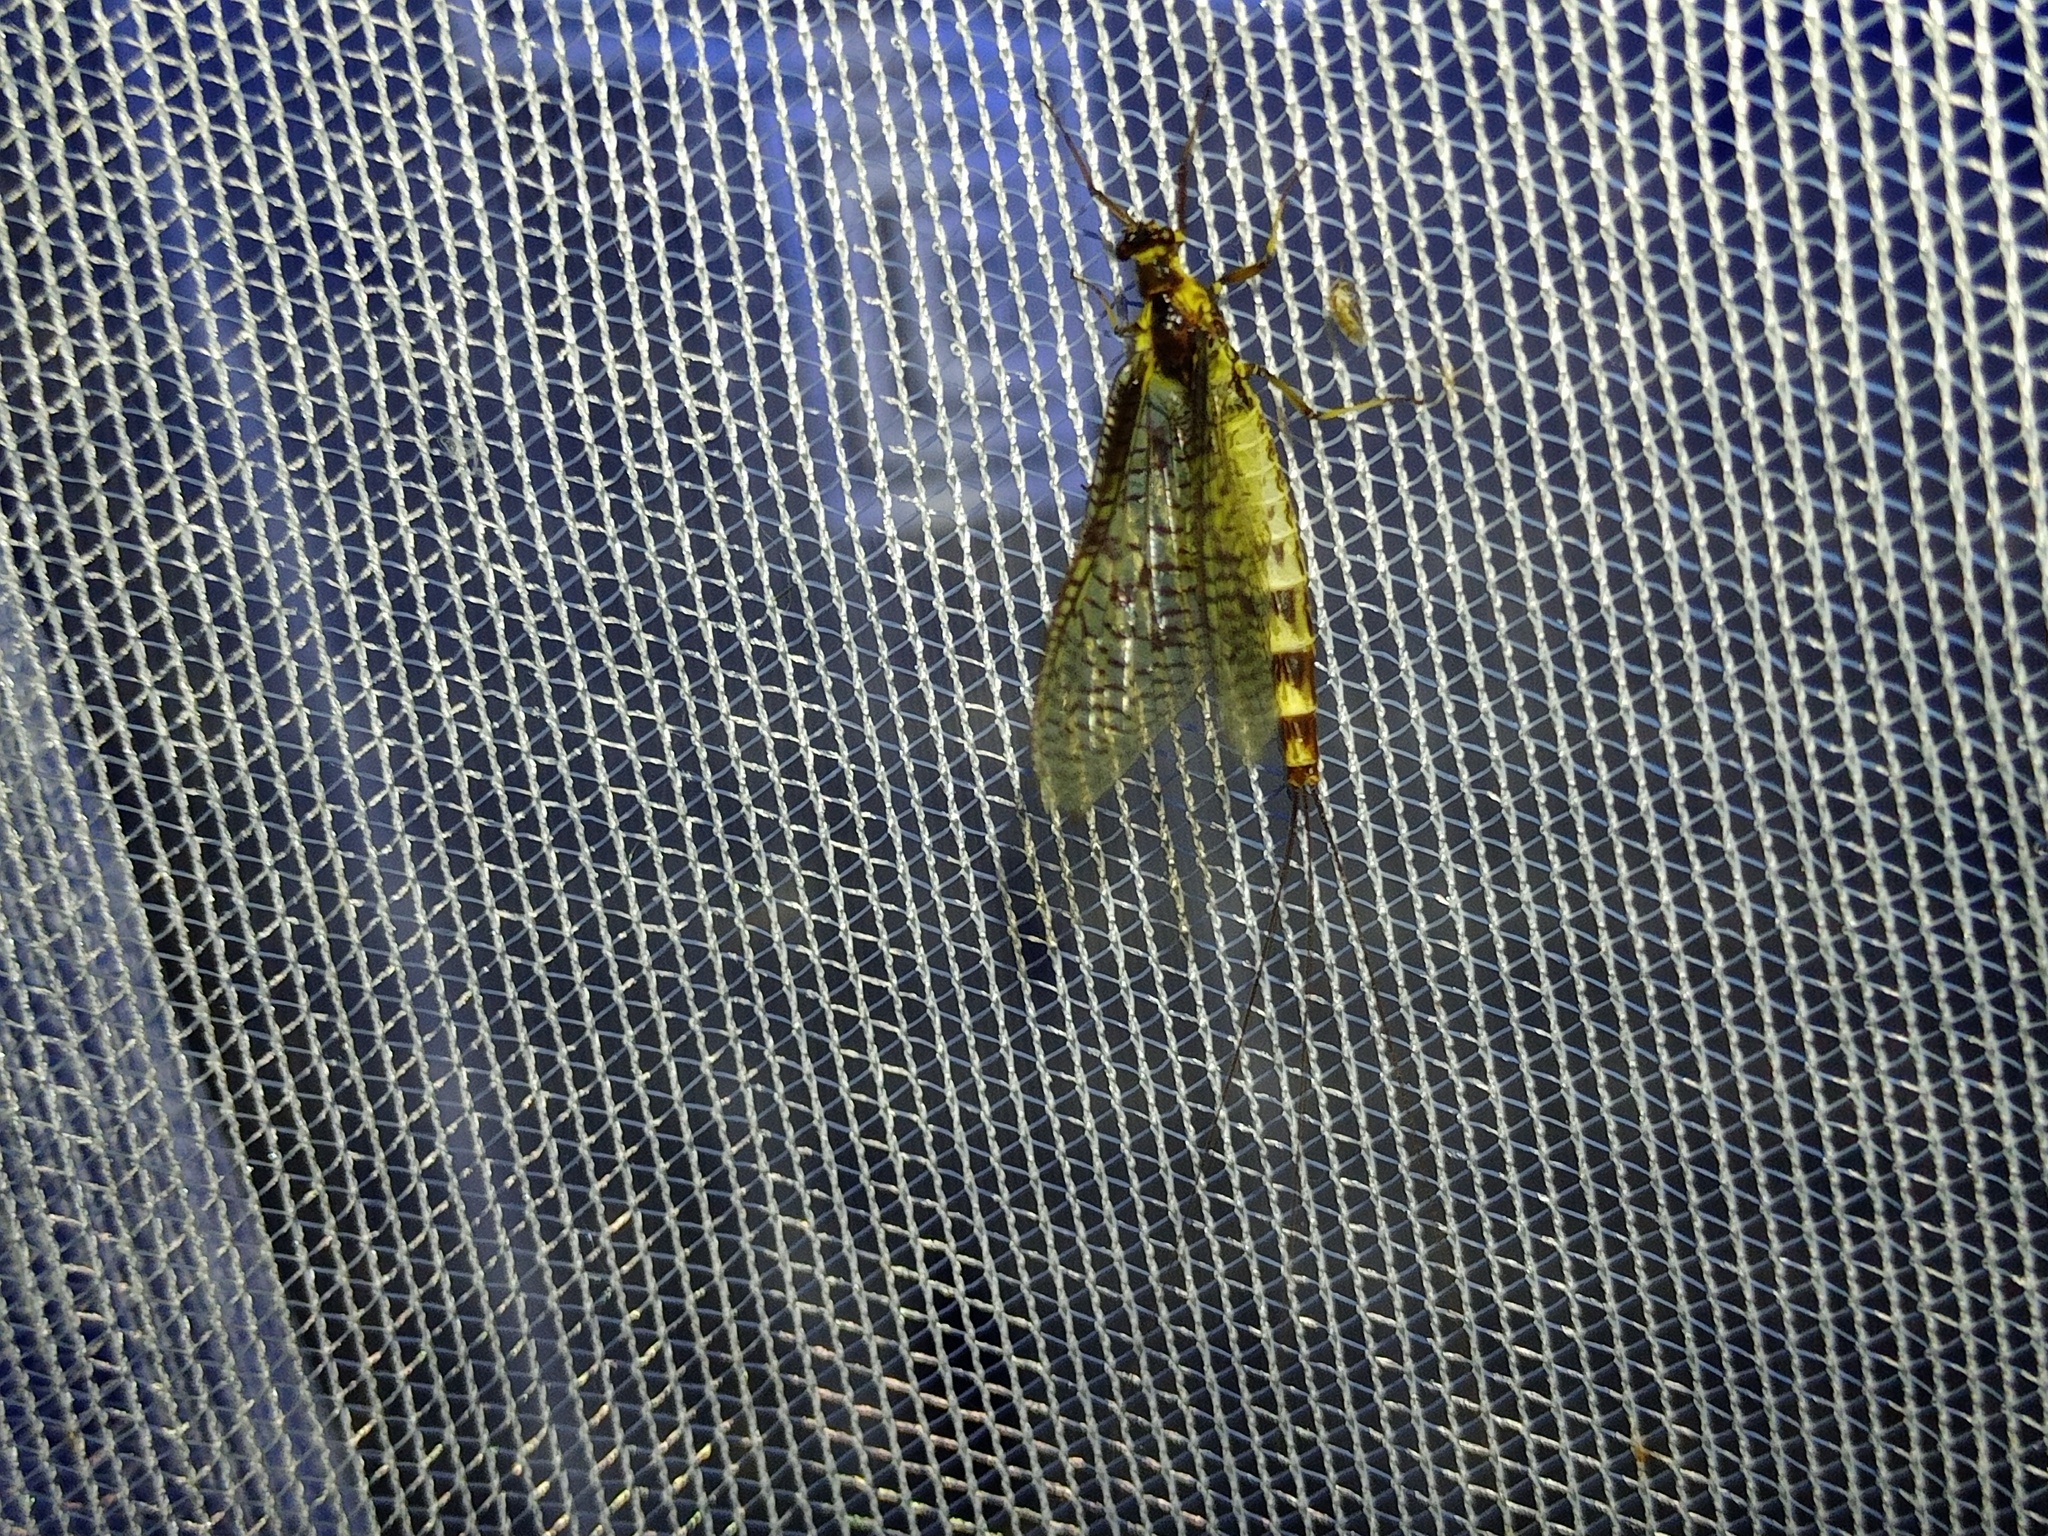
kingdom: Animalia
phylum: Arthropoda
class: Insecta
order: Ephemeroptera
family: Ephemeridae
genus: Ephemera
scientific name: Ephemera danica
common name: Green dun
